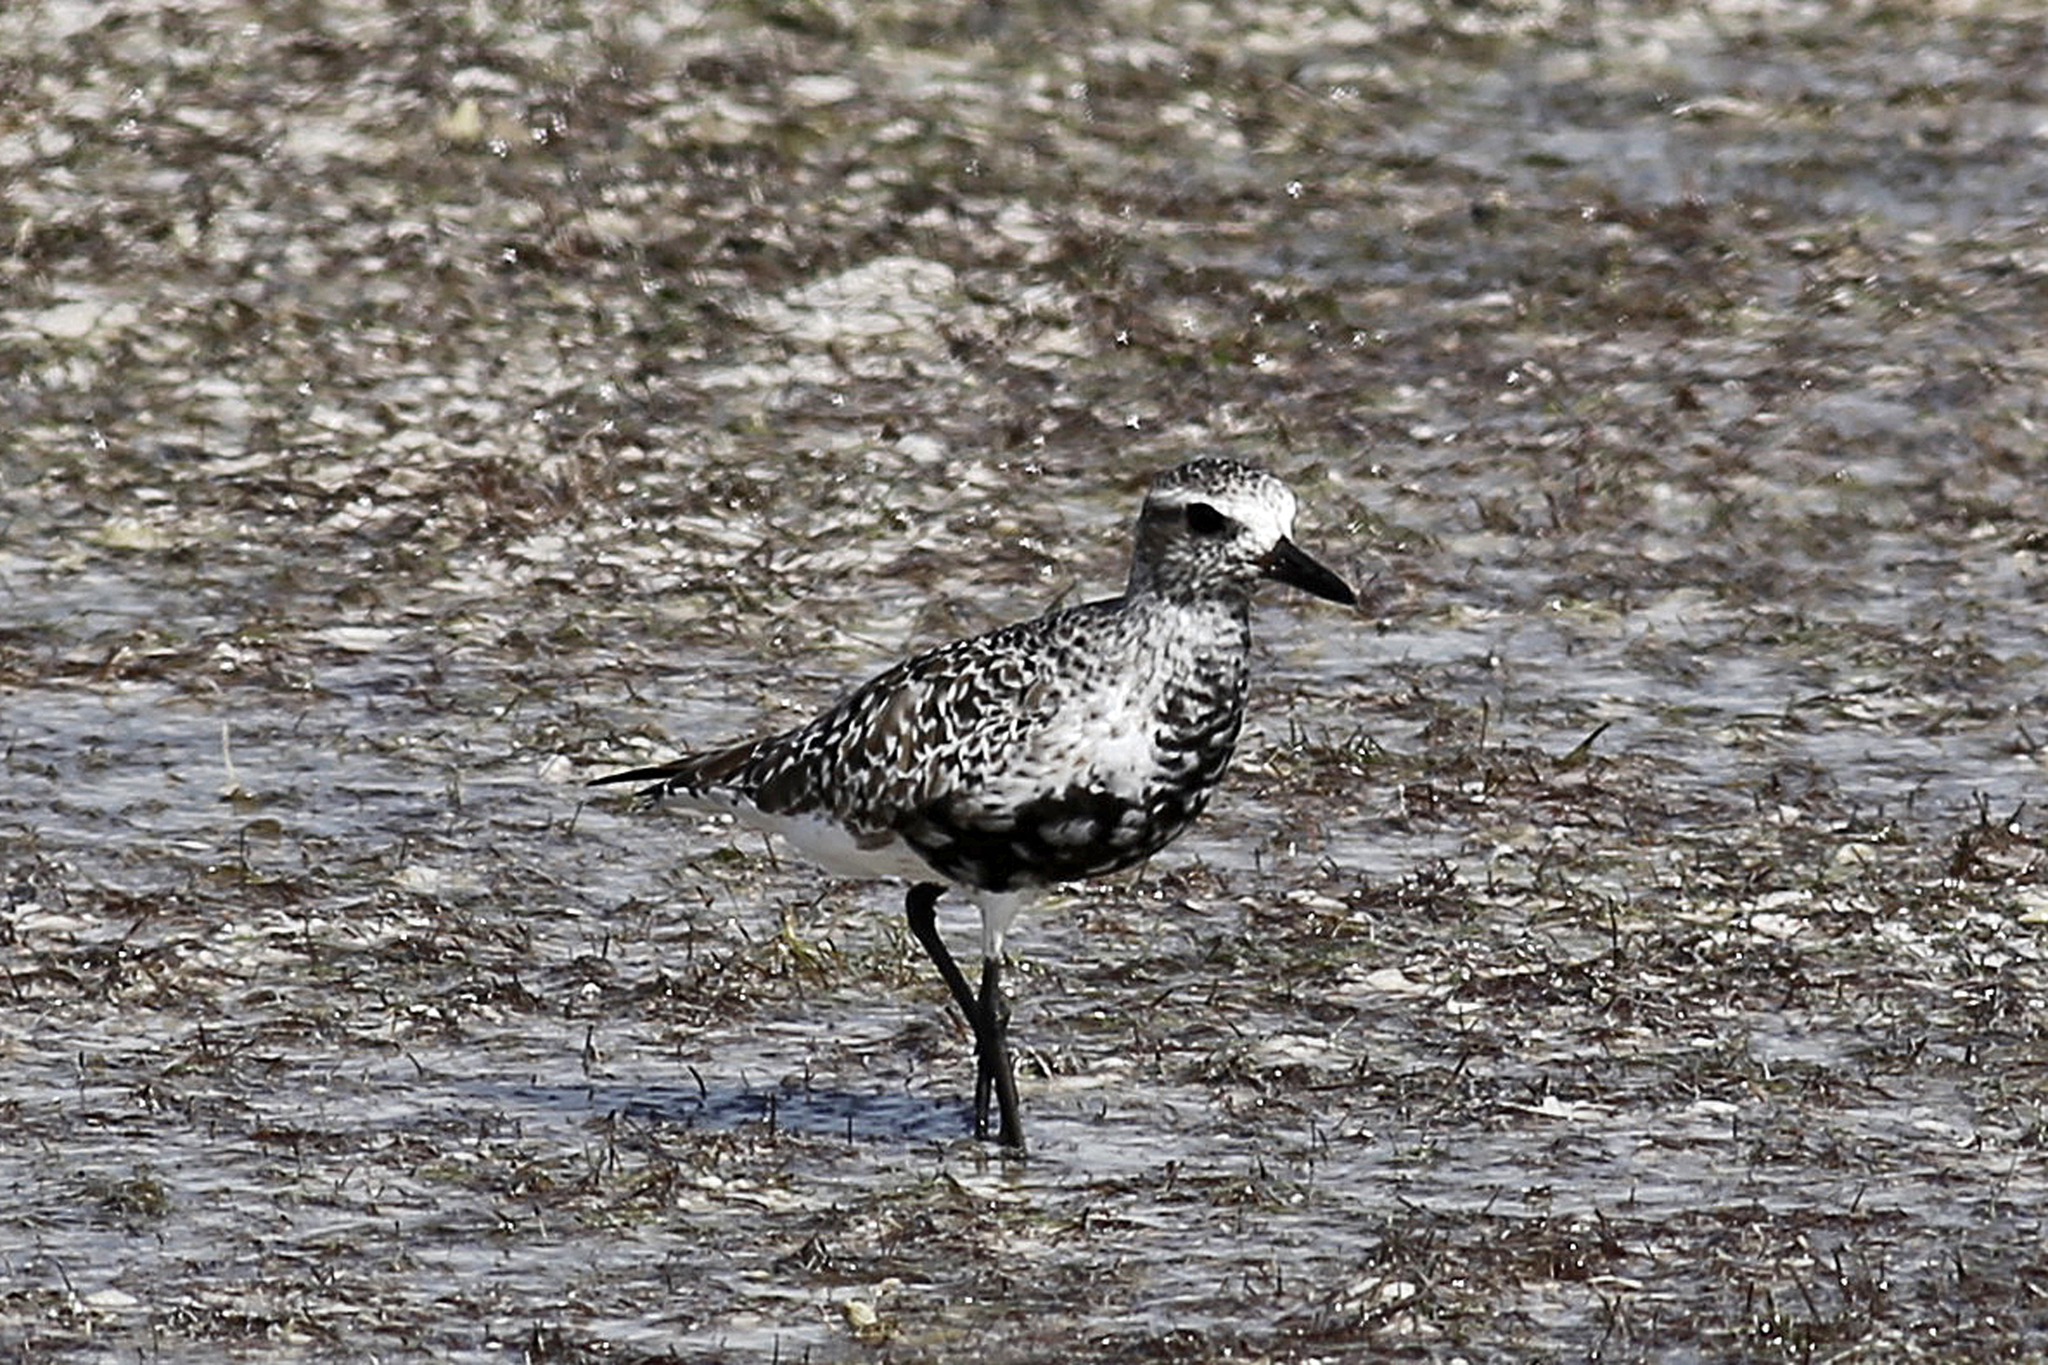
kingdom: Animalia
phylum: Chordata
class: Aves
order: Charadriiformes
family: Charadriidae
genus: Pluvialis
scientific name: Pluvialis squatarola
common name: Grey plover
